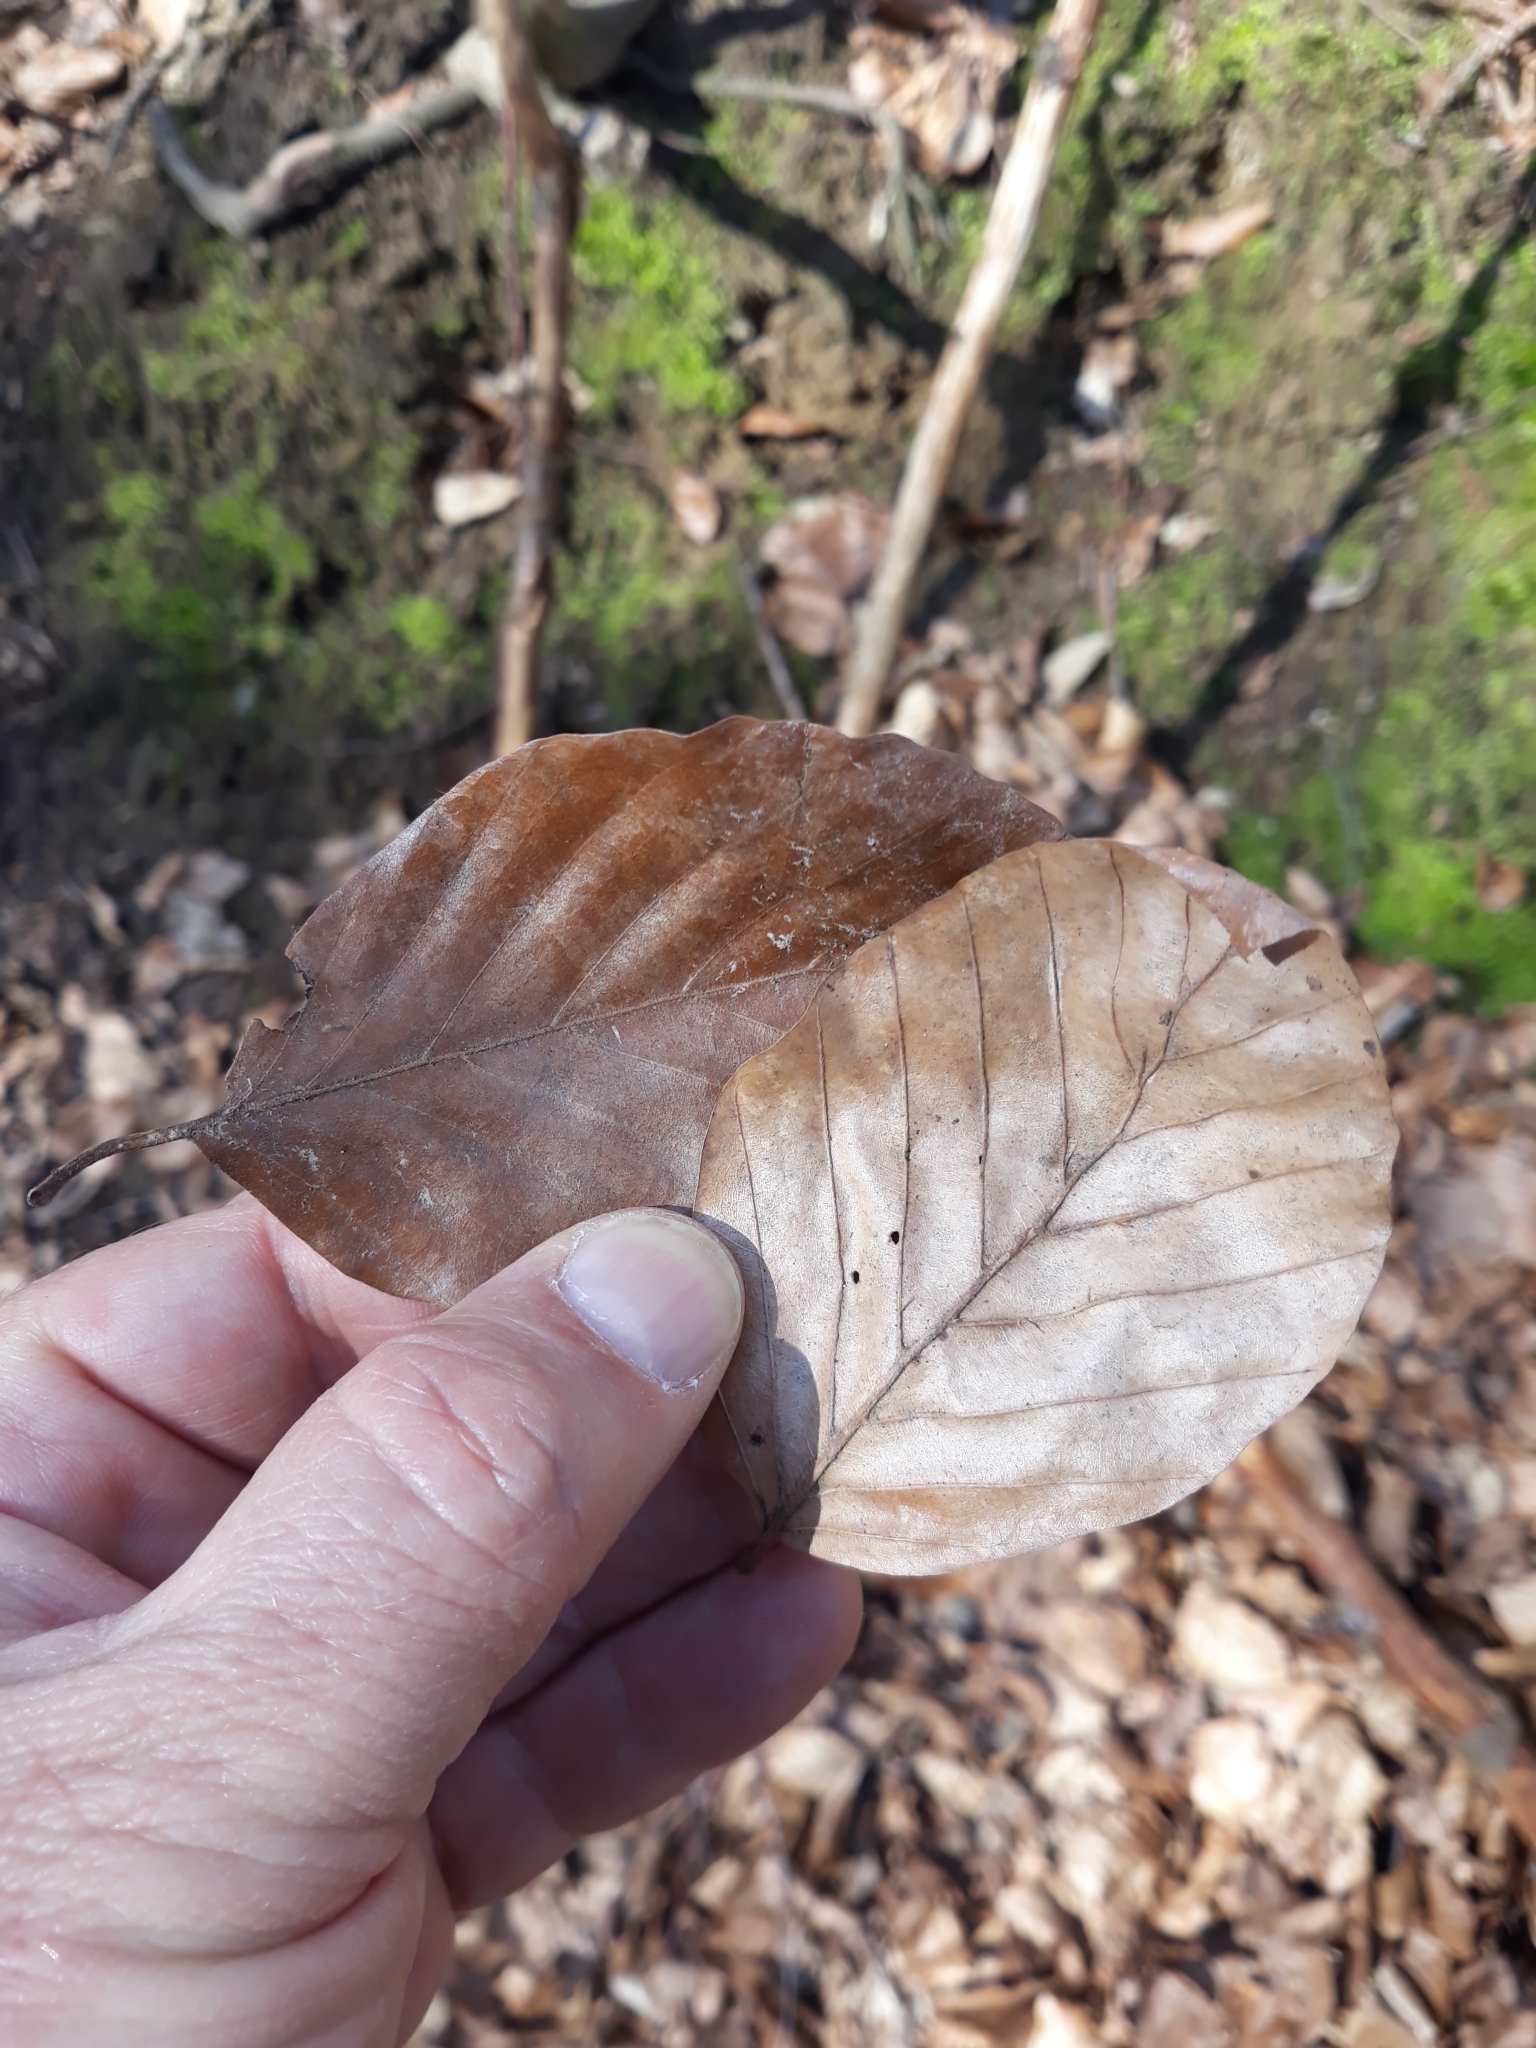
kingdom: Plantae
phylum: Tracheophyta
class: Magnoliopsida
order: Fagales
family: Fagaceae
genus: Fagus
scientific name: Fagus sylvatica
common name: Beech
